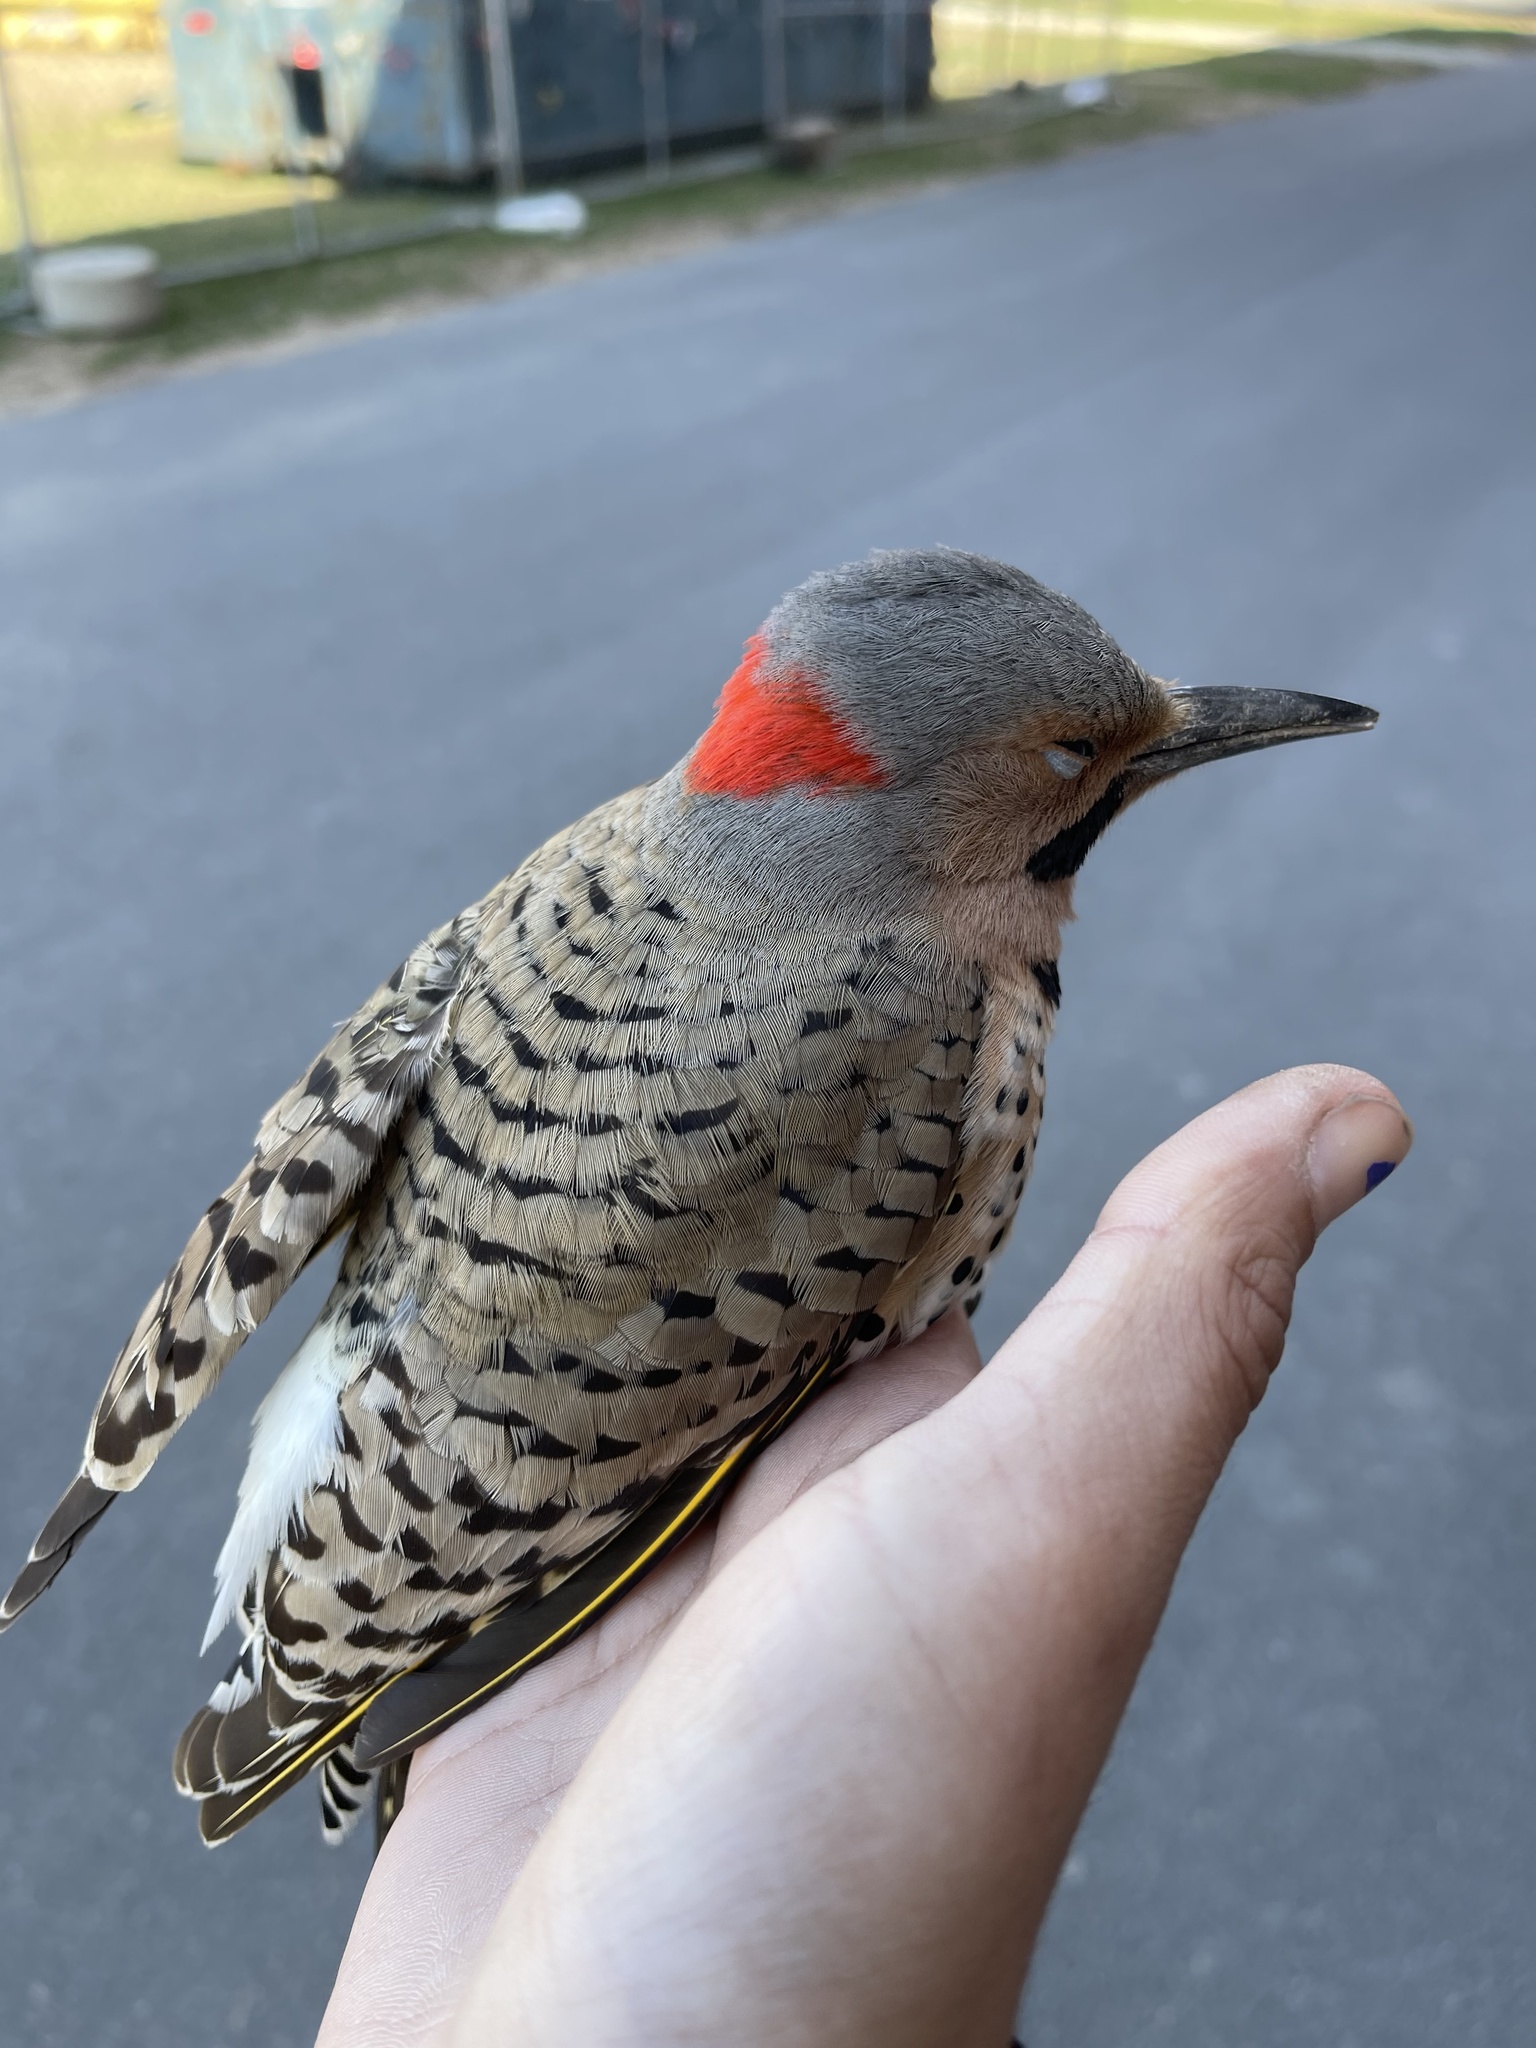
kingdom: Animalia
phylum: Chordata
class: Aves
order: Piciformes
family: Picidae
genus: Colaptes
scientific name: Colaptes auratus
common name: Northern flicker
